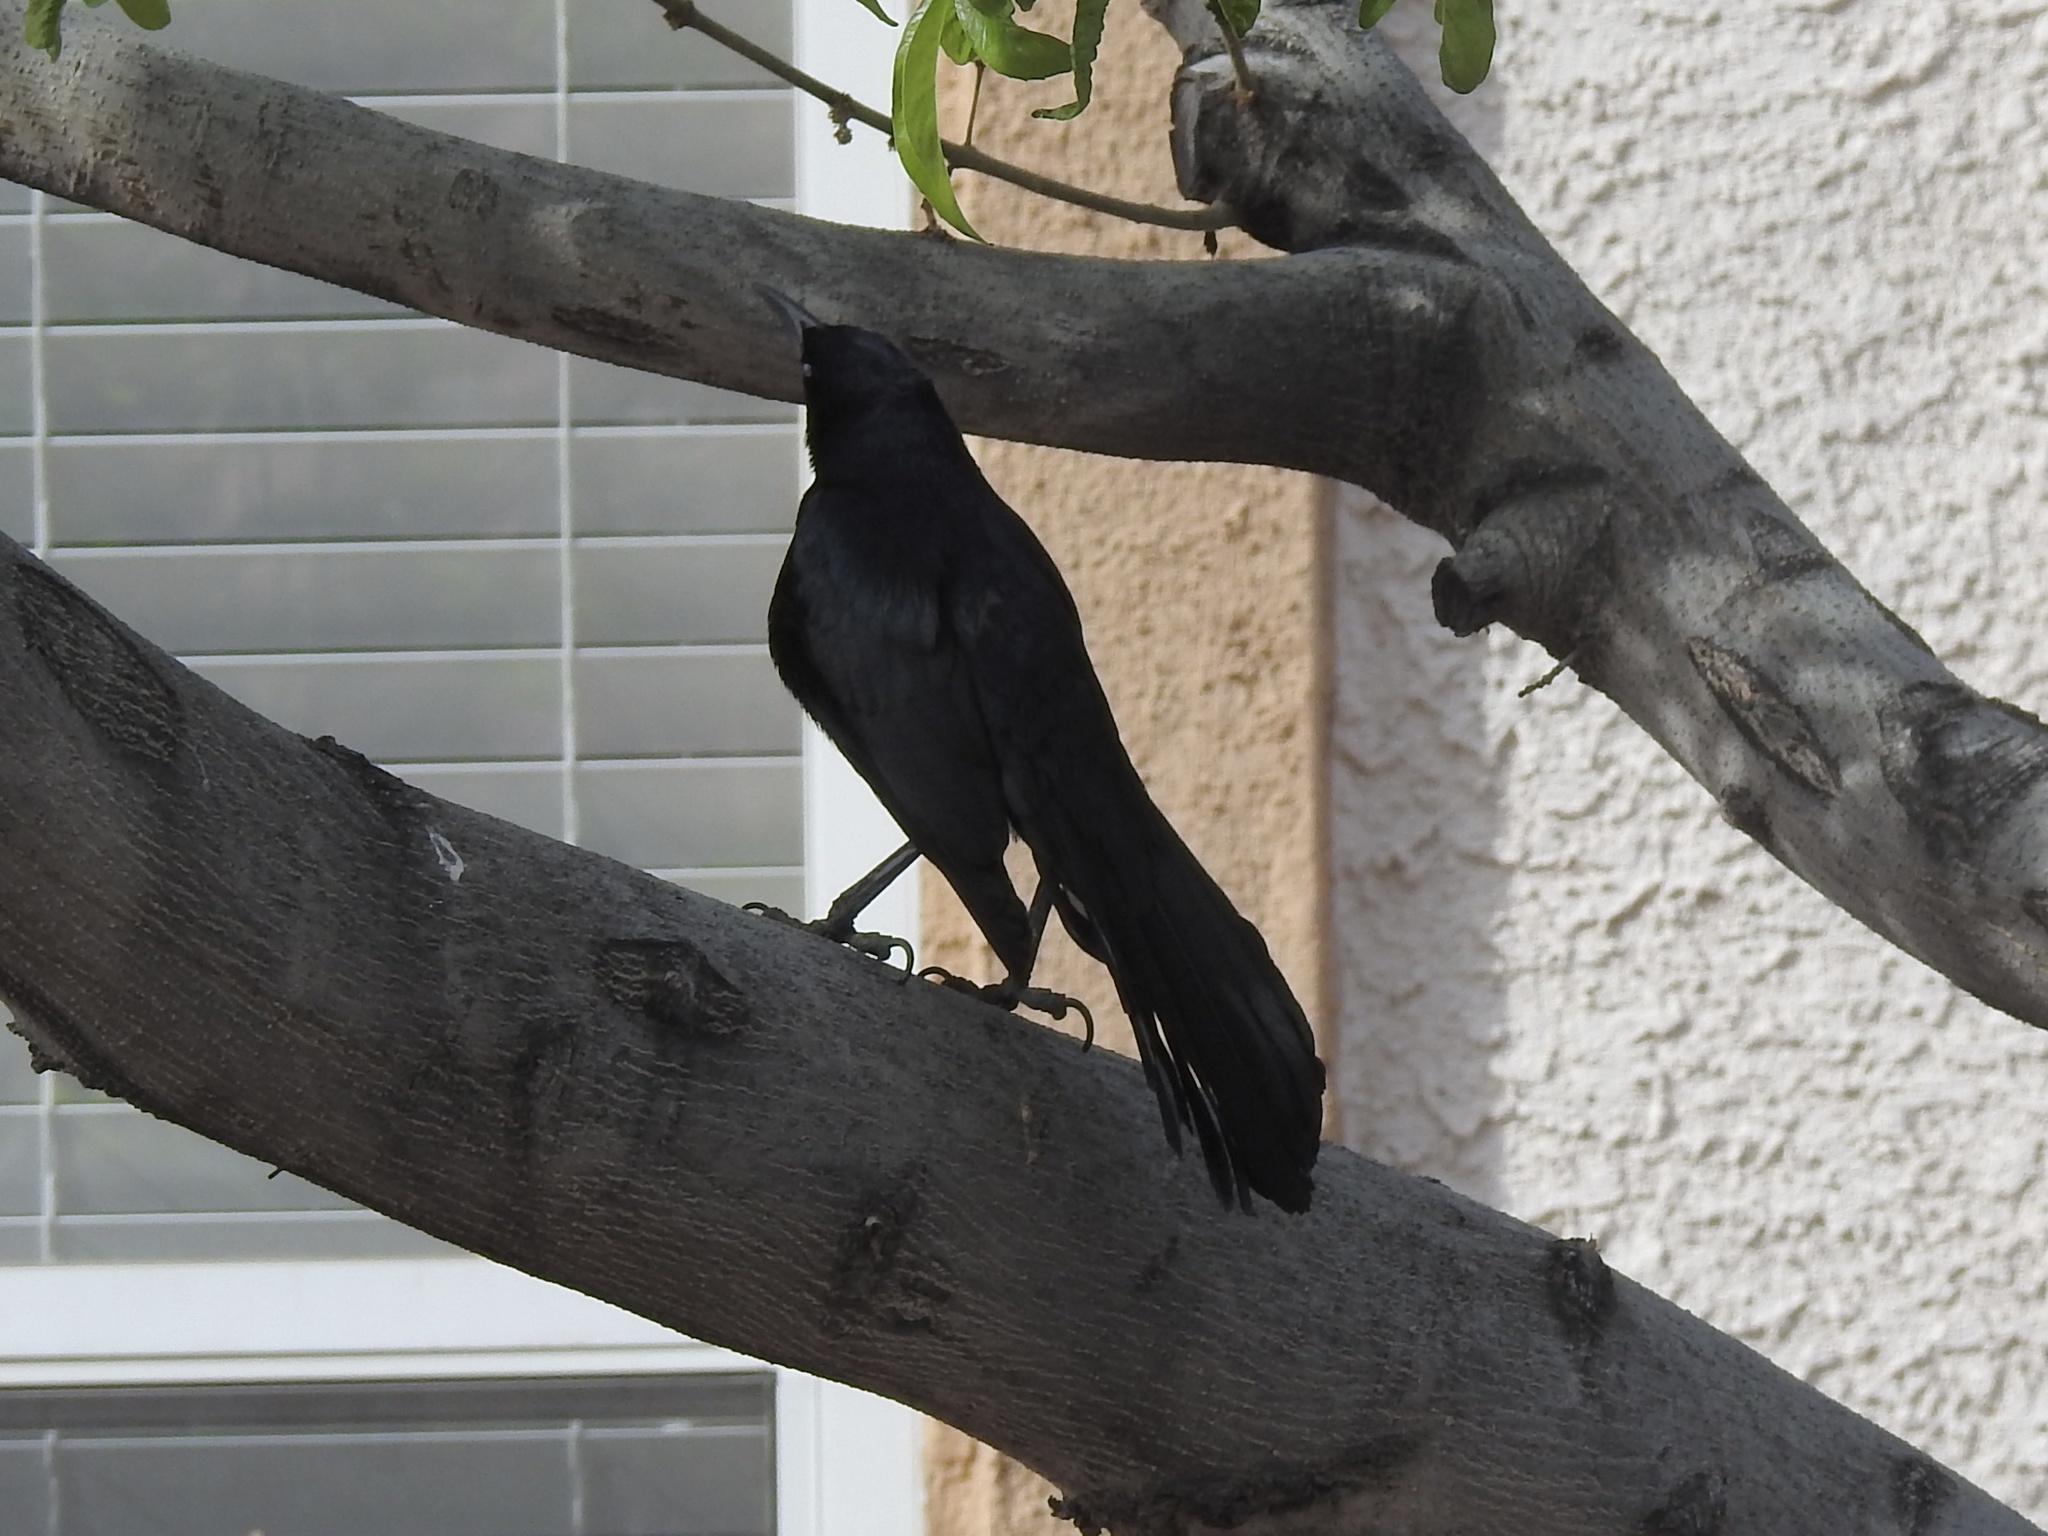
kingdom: Animalia
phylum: Chordata
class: Aves
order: Passeriformes
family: Icteridae
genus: Quiscalus
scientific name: Quiscalus mexicanus
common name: Great-tailed grackle
